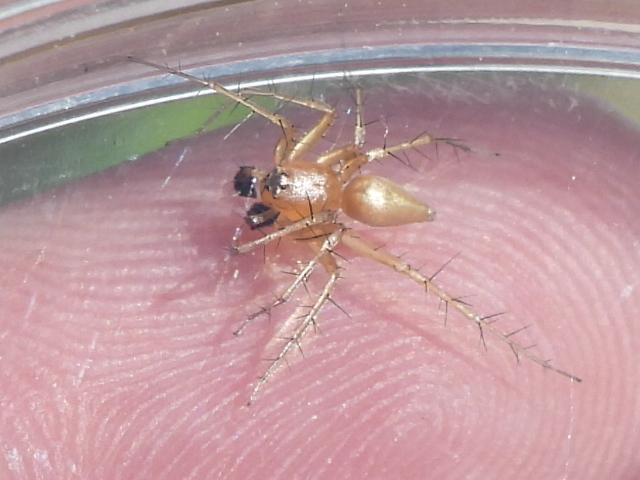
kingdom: Animalia
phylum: Arthropoda
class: Arachnida
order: Araneae
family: Oxyopidae
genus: Oxyopes
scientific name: Oxyopes salticus
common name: Lynx spiders
